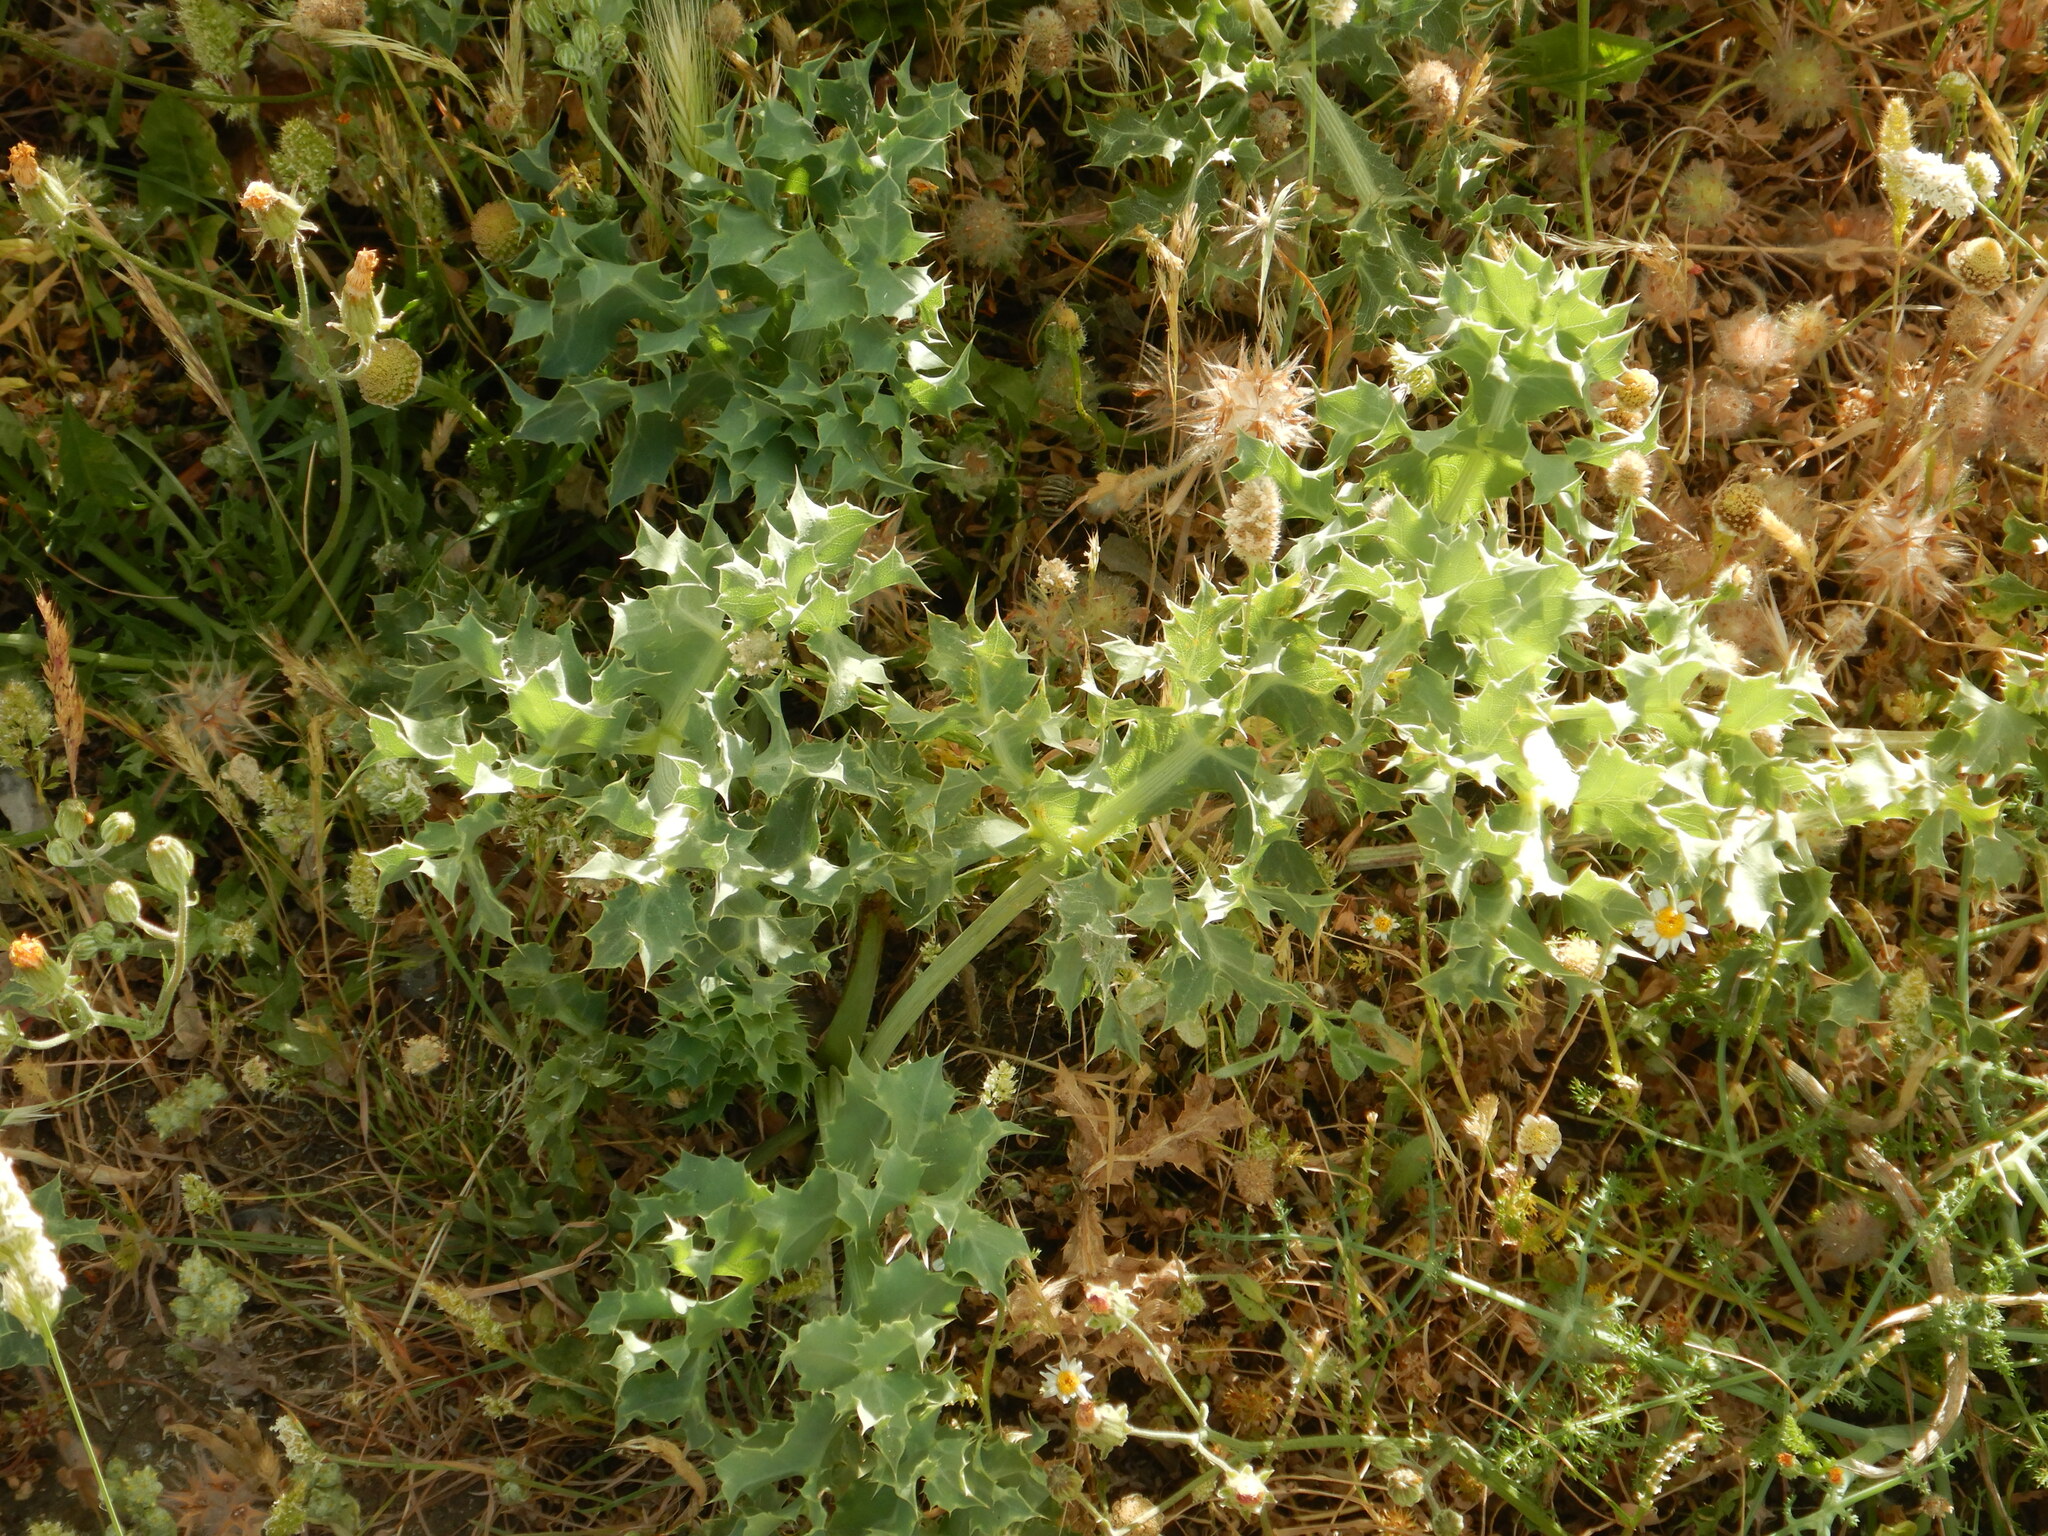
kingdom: Plantae
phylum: Tracheophyta
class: Magnoliopsida
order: Apiales
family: Apiaceae
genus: Eryngium
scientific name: Eryngium campestre
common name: Field eryngo
